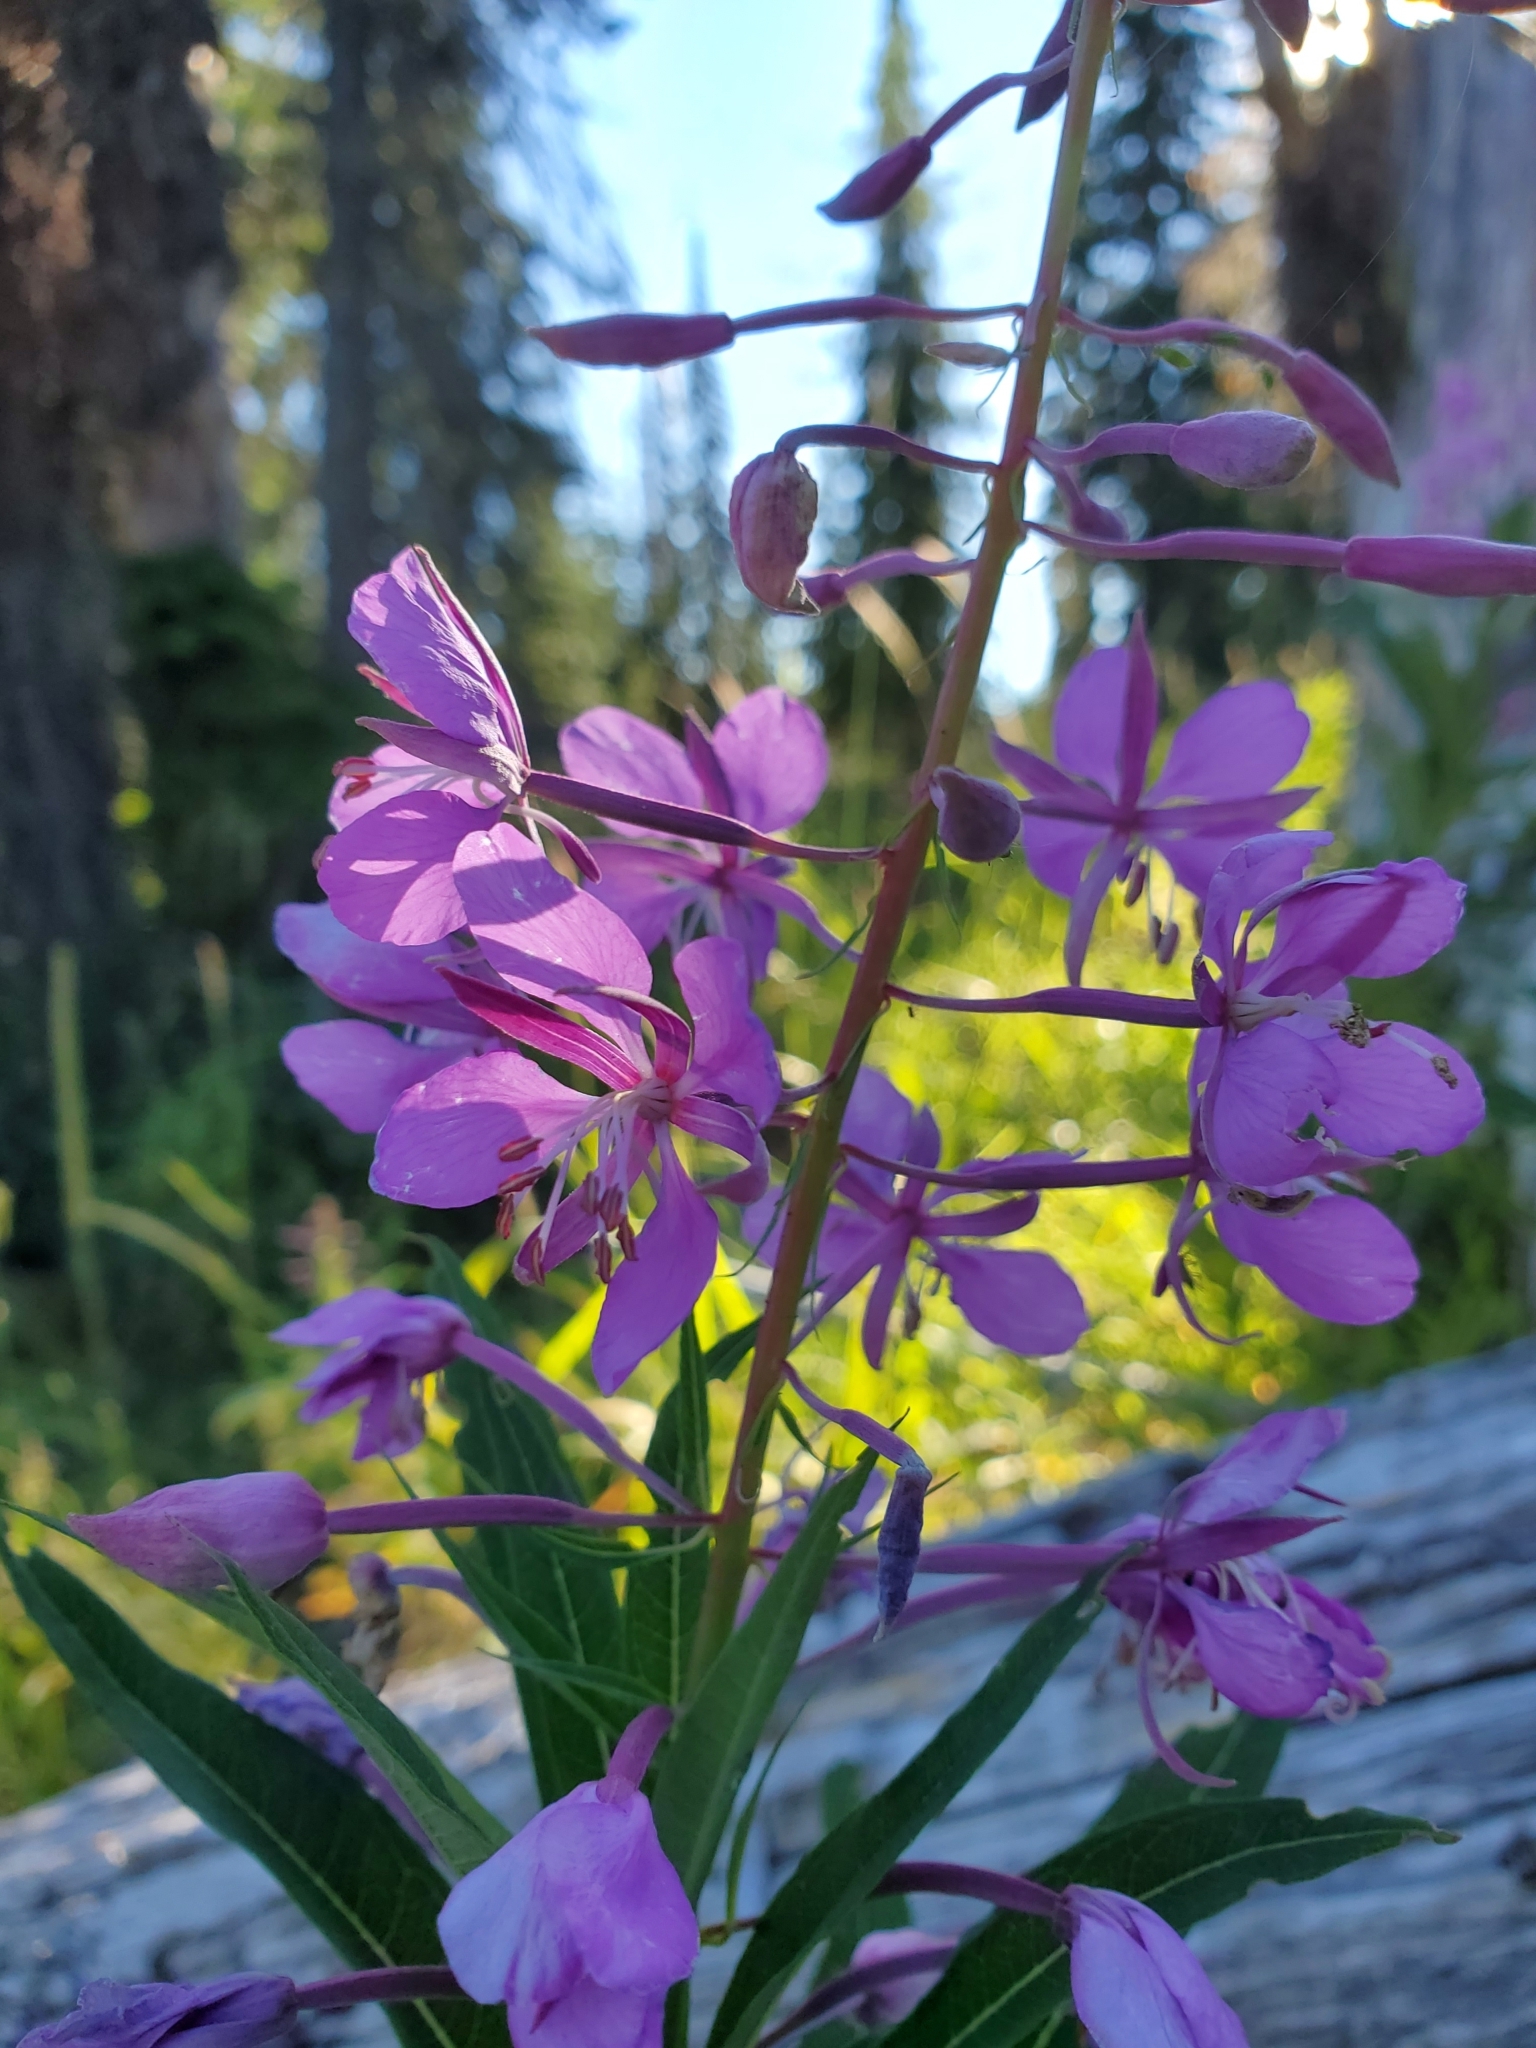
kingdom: Plantae
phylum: Tracheophyta
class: Magnoliopsida
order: Myrtales
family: Onagraceae
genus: Chamaenerion
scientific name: Chamaenerion angustifolium
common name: Fireweed
